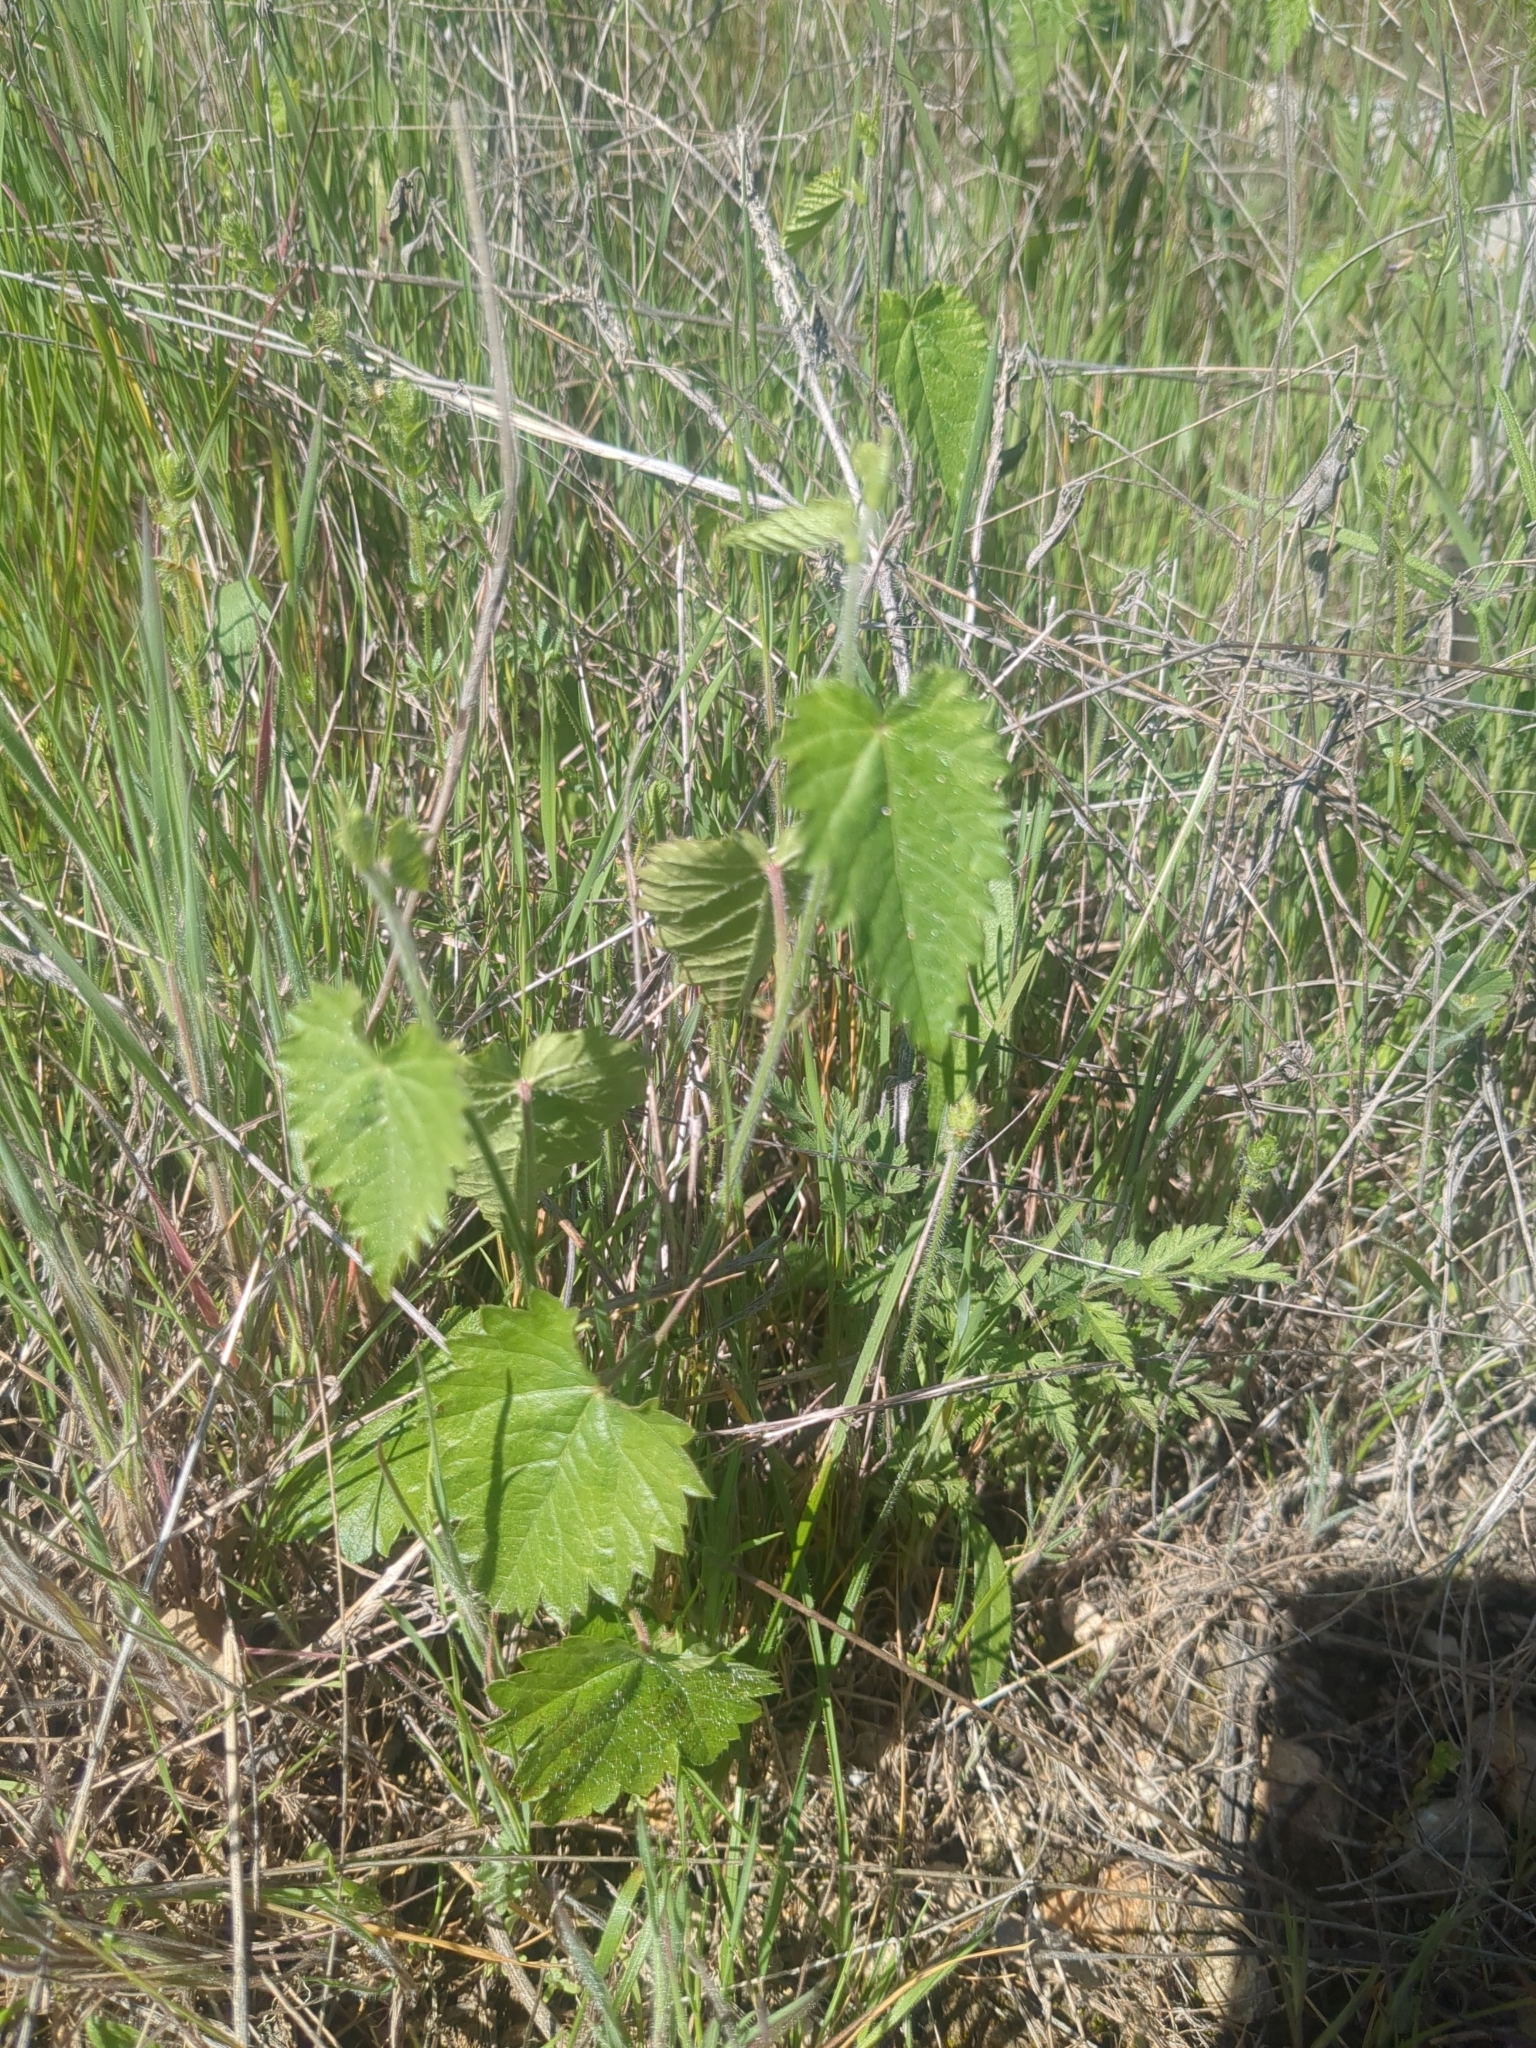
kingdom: Plantae
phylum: Tracheophyta
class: Magnoliopsida
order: Malpighiales
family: Euphorbiaceae
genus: Tragia
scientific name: Tragia urticifolia
